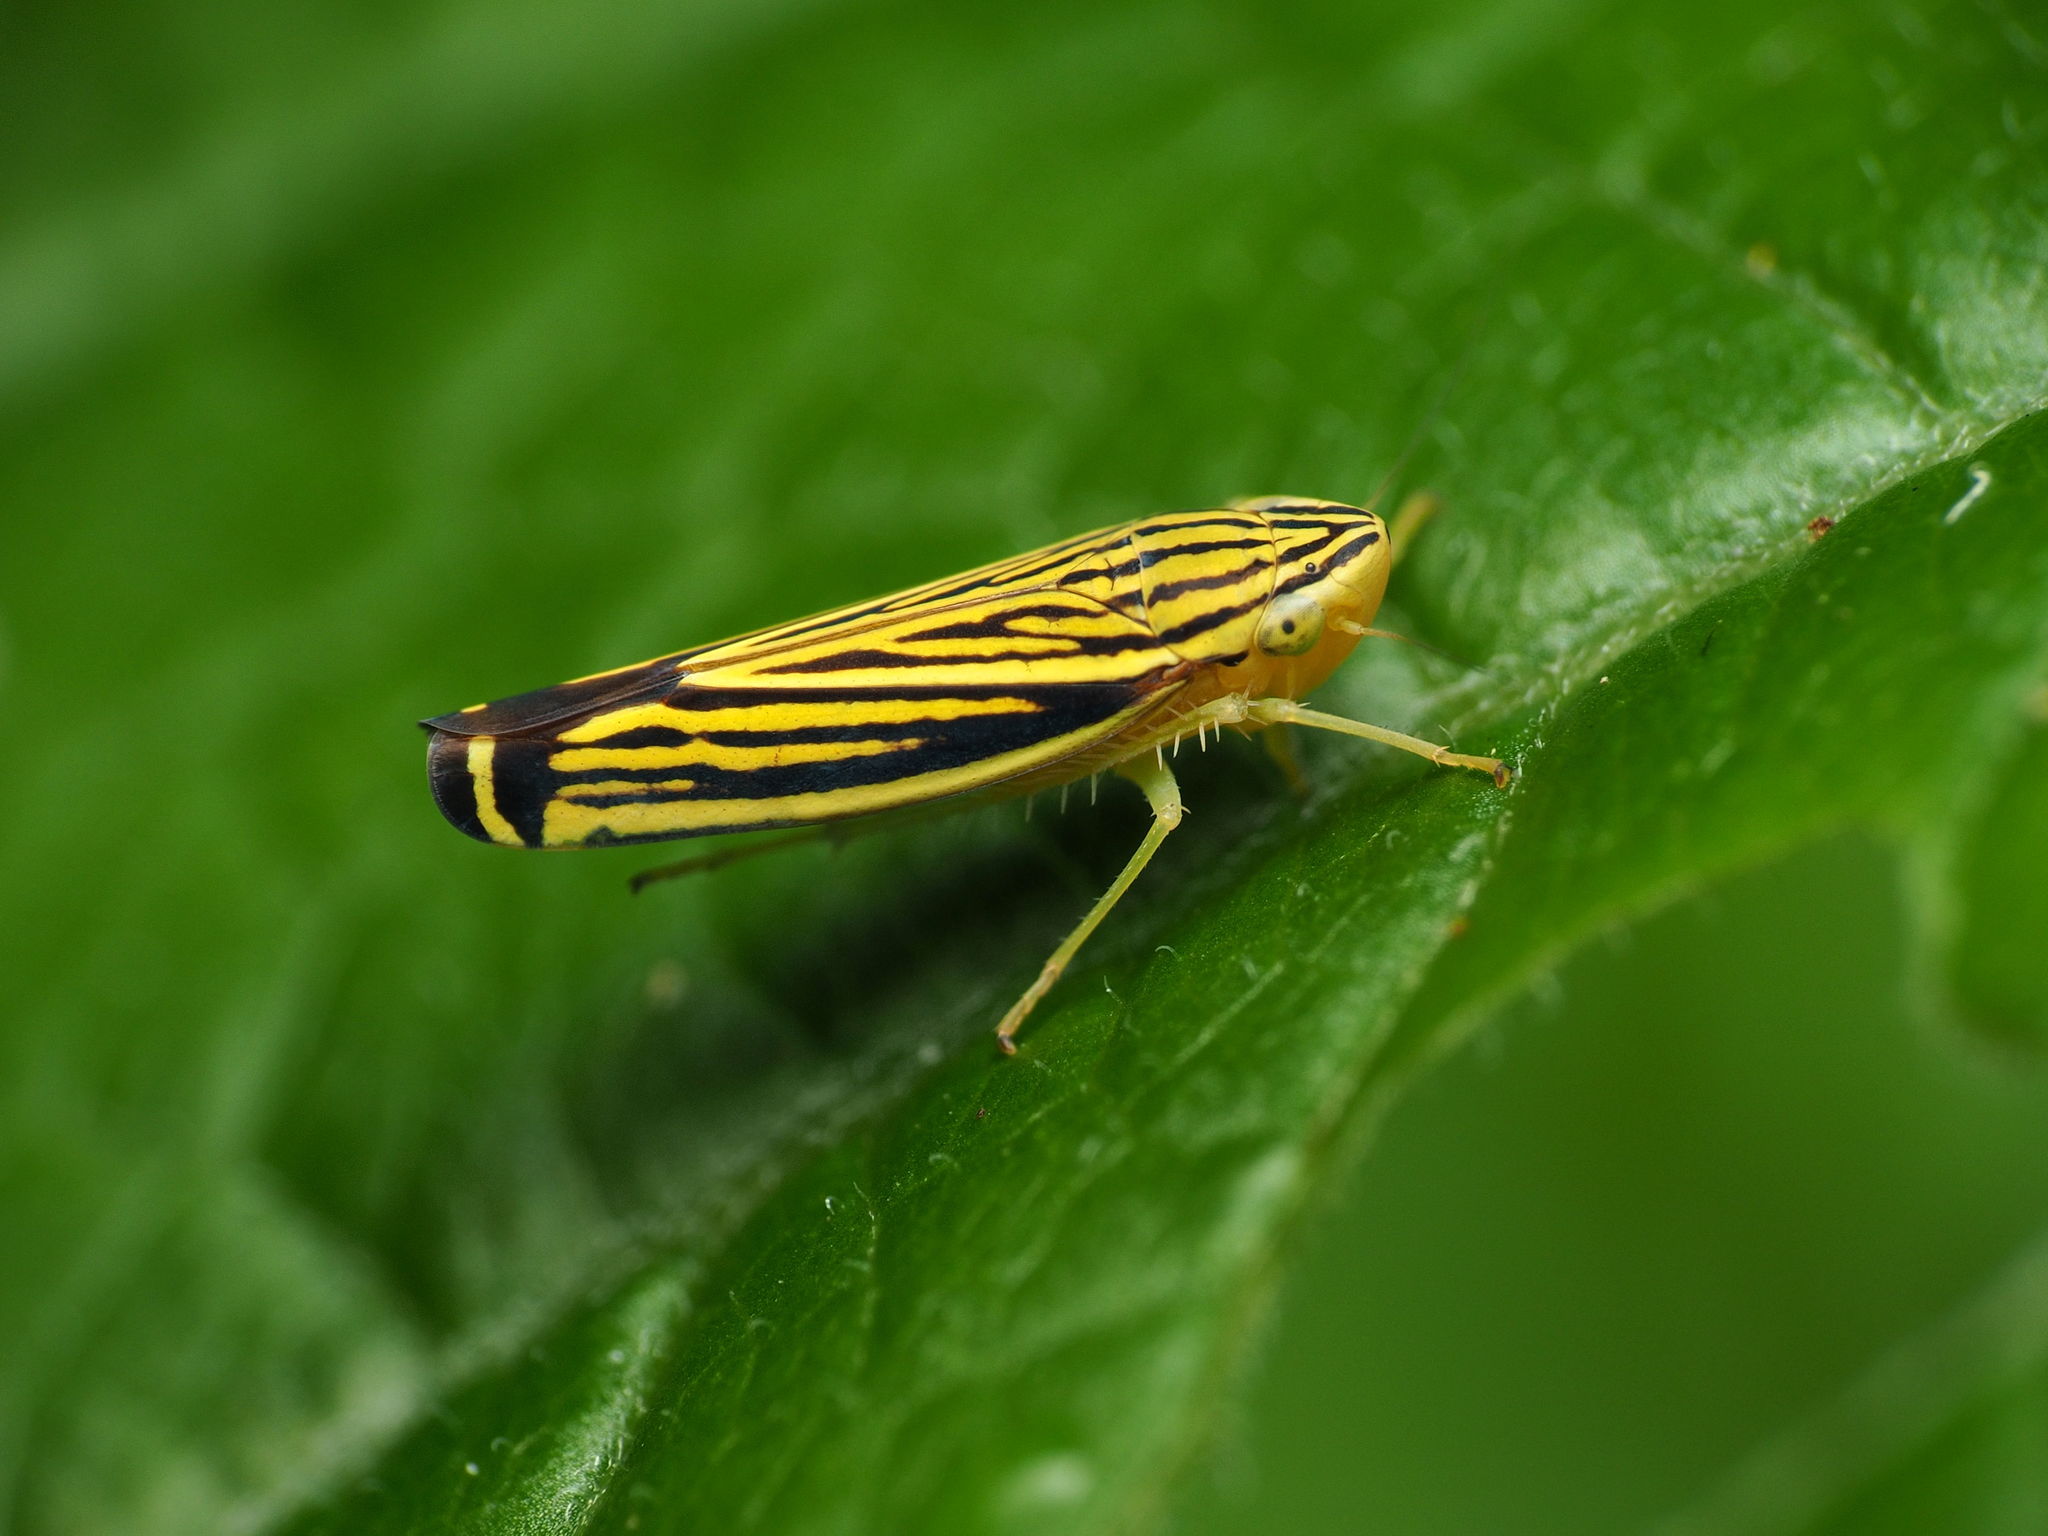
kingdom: Animalia
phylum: Arthropoda
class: Insecta
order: Hemiptera
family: Cicadellidae
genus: Sibovia
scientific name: Sibovia occatoria
